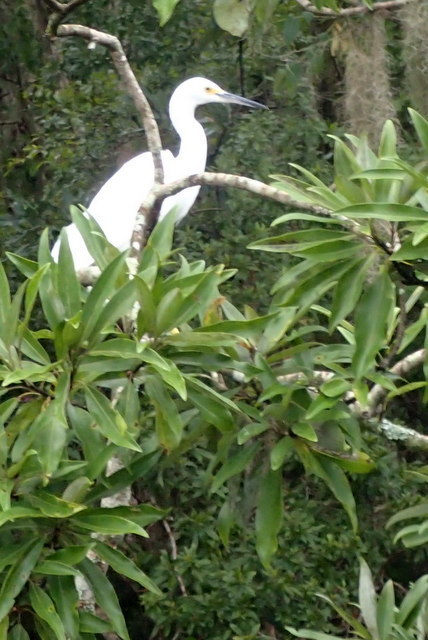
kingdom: Animalia
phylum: Chordata
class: Aves
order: Pelecaniformes
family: Ardeidae
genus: Egretta
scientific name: Egretta thula
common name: Snowy egret
